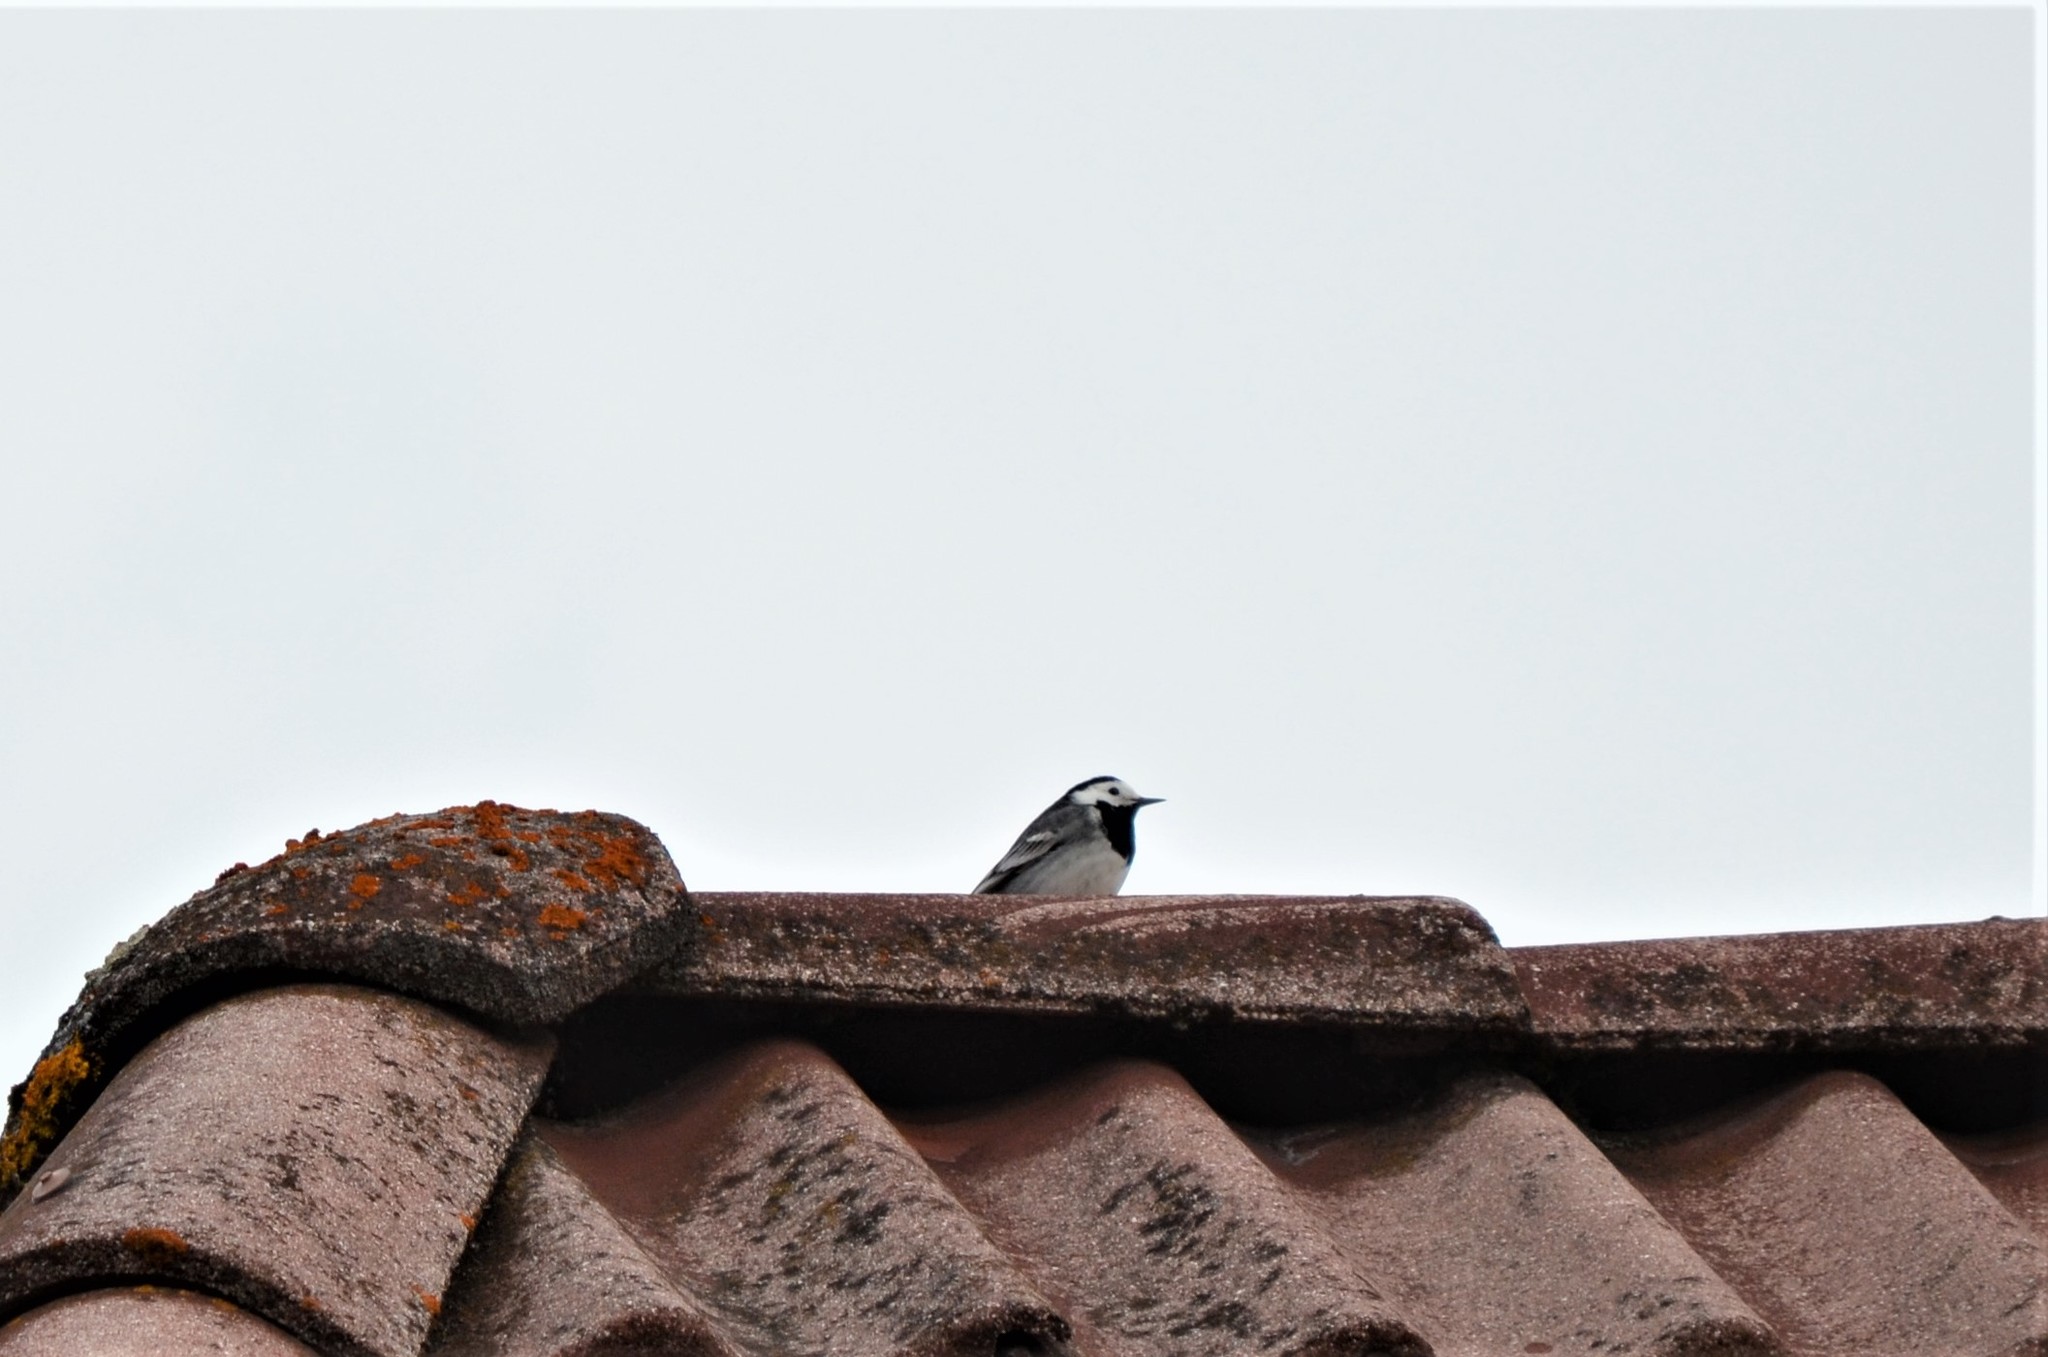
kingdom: Animalia
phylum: Chordata
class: Aves
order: Passeriformes
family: Motacillidae
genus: Motacilla
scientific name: Motacilla alba
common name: White wagtail
